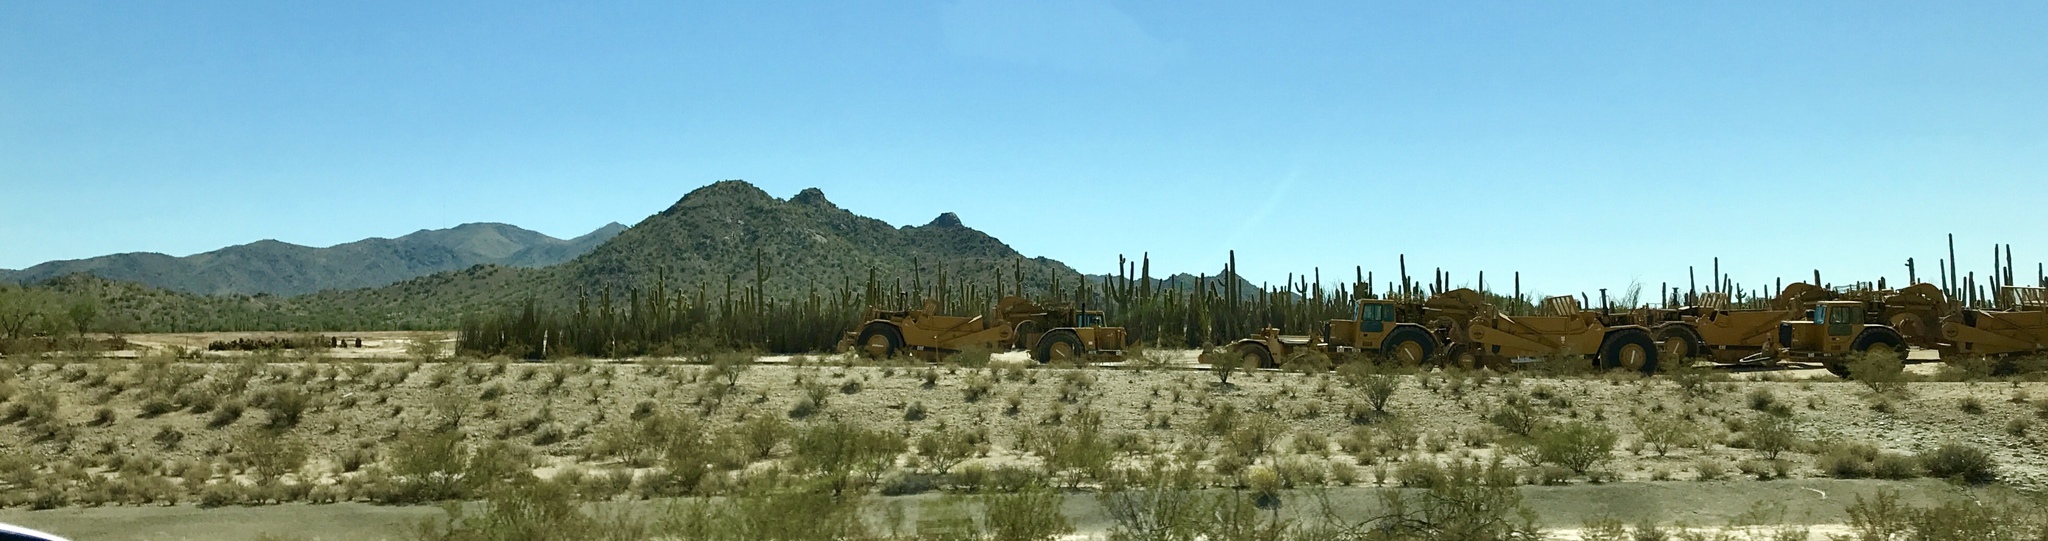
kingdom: Plantae
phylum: Tracheophyta
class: Magnoliopsida
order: Caryophyllales
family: Cactaceae
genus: Carnegiea
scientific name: Carnegiea gigantea
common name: Saguaro
